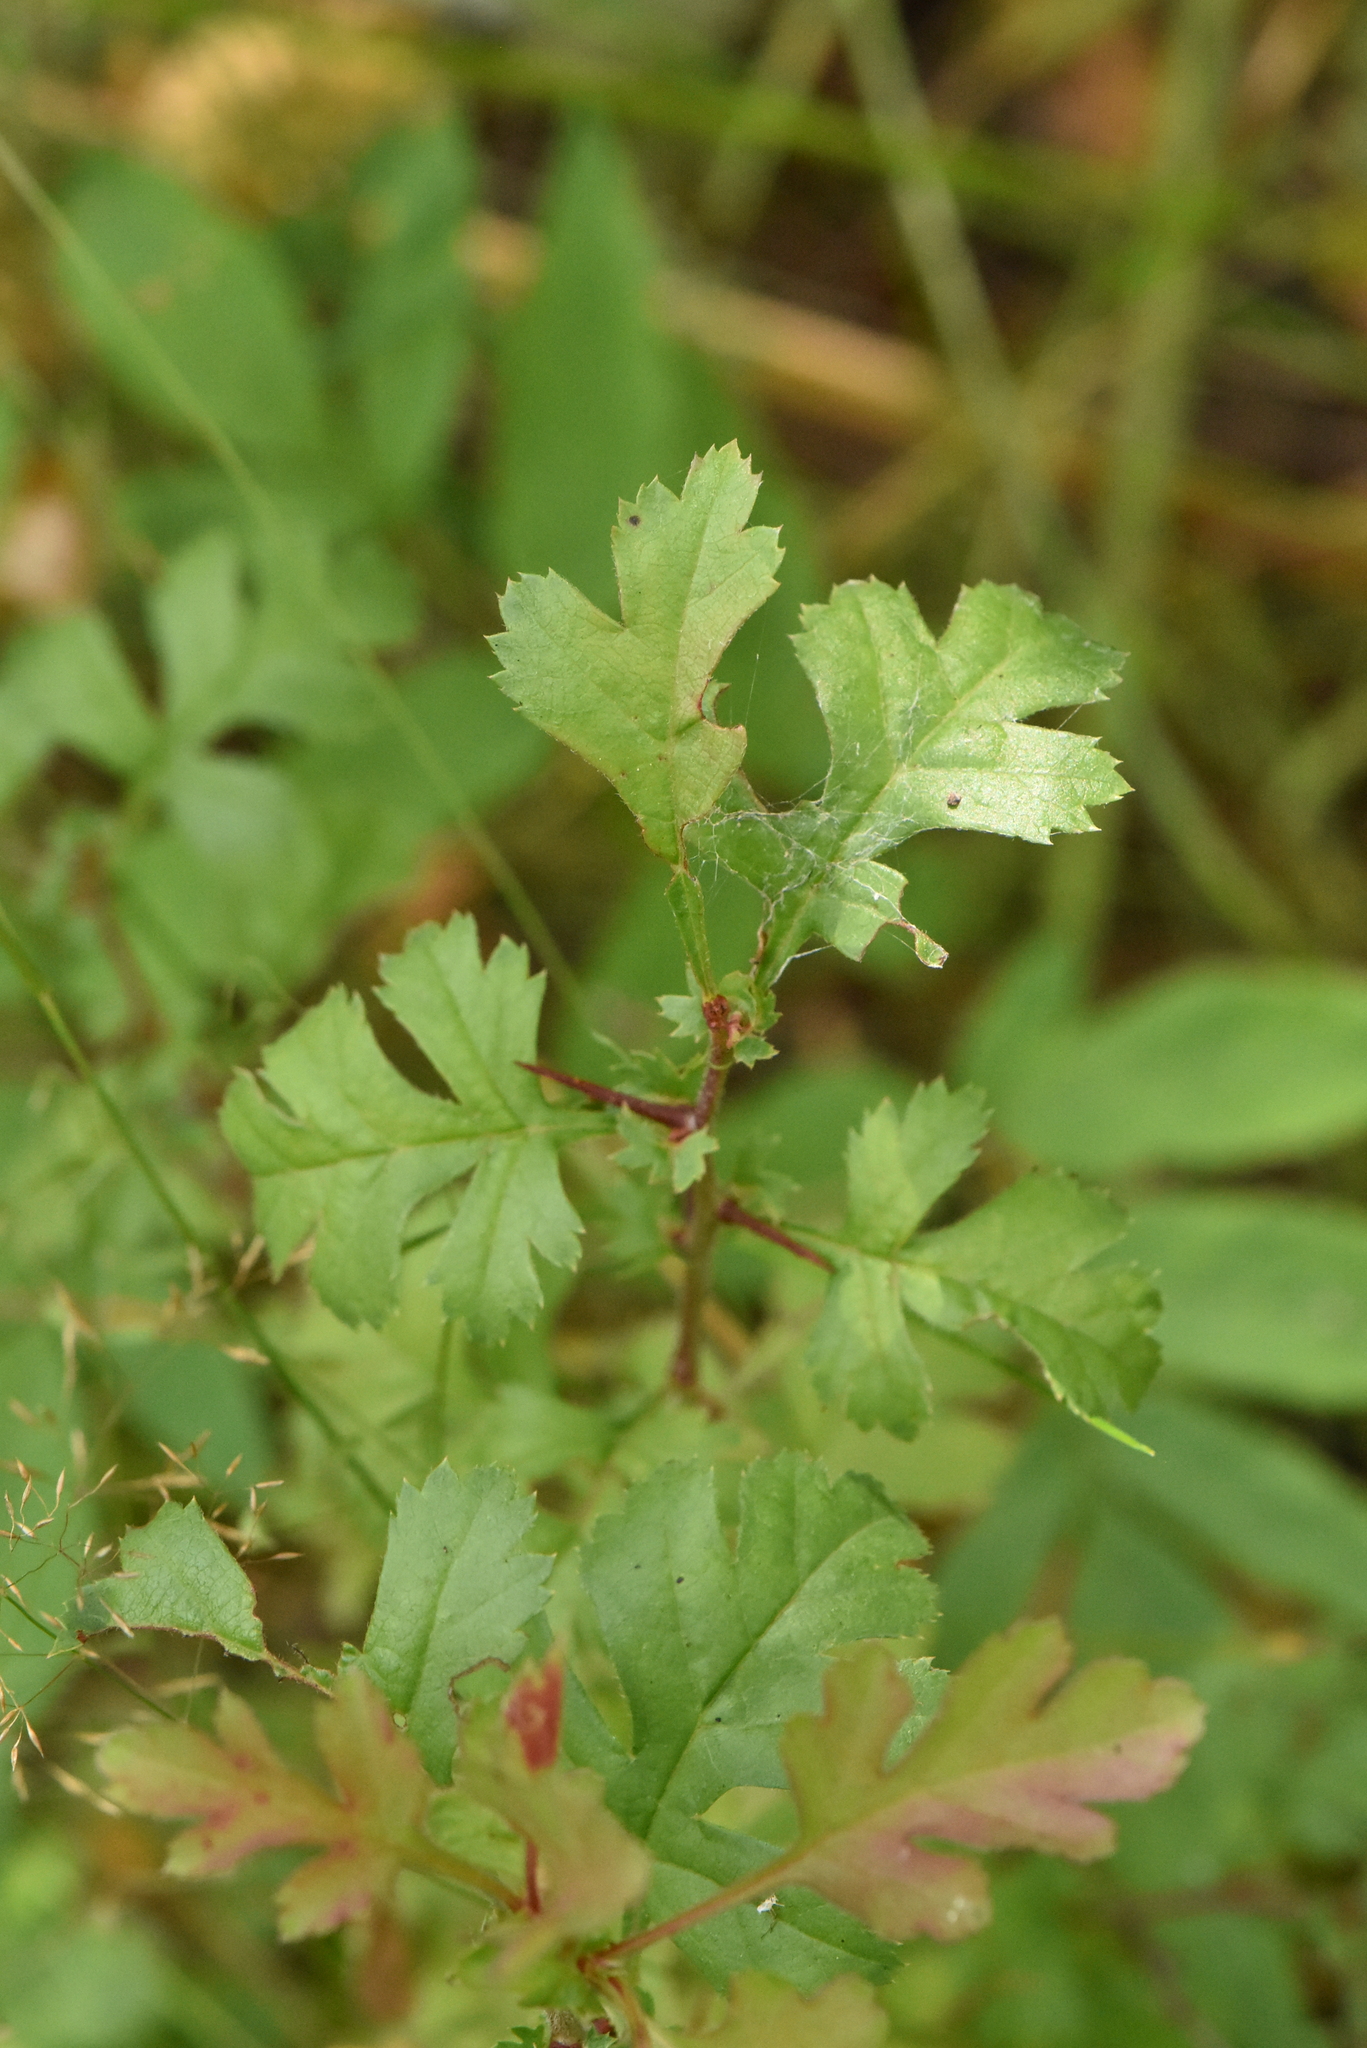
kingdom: Plantae
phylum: Tracheophyta
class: Magnoliopsida
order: Rosales
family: Rosaceae
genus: Crataegus
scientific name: Crataegus rhipidophylla
